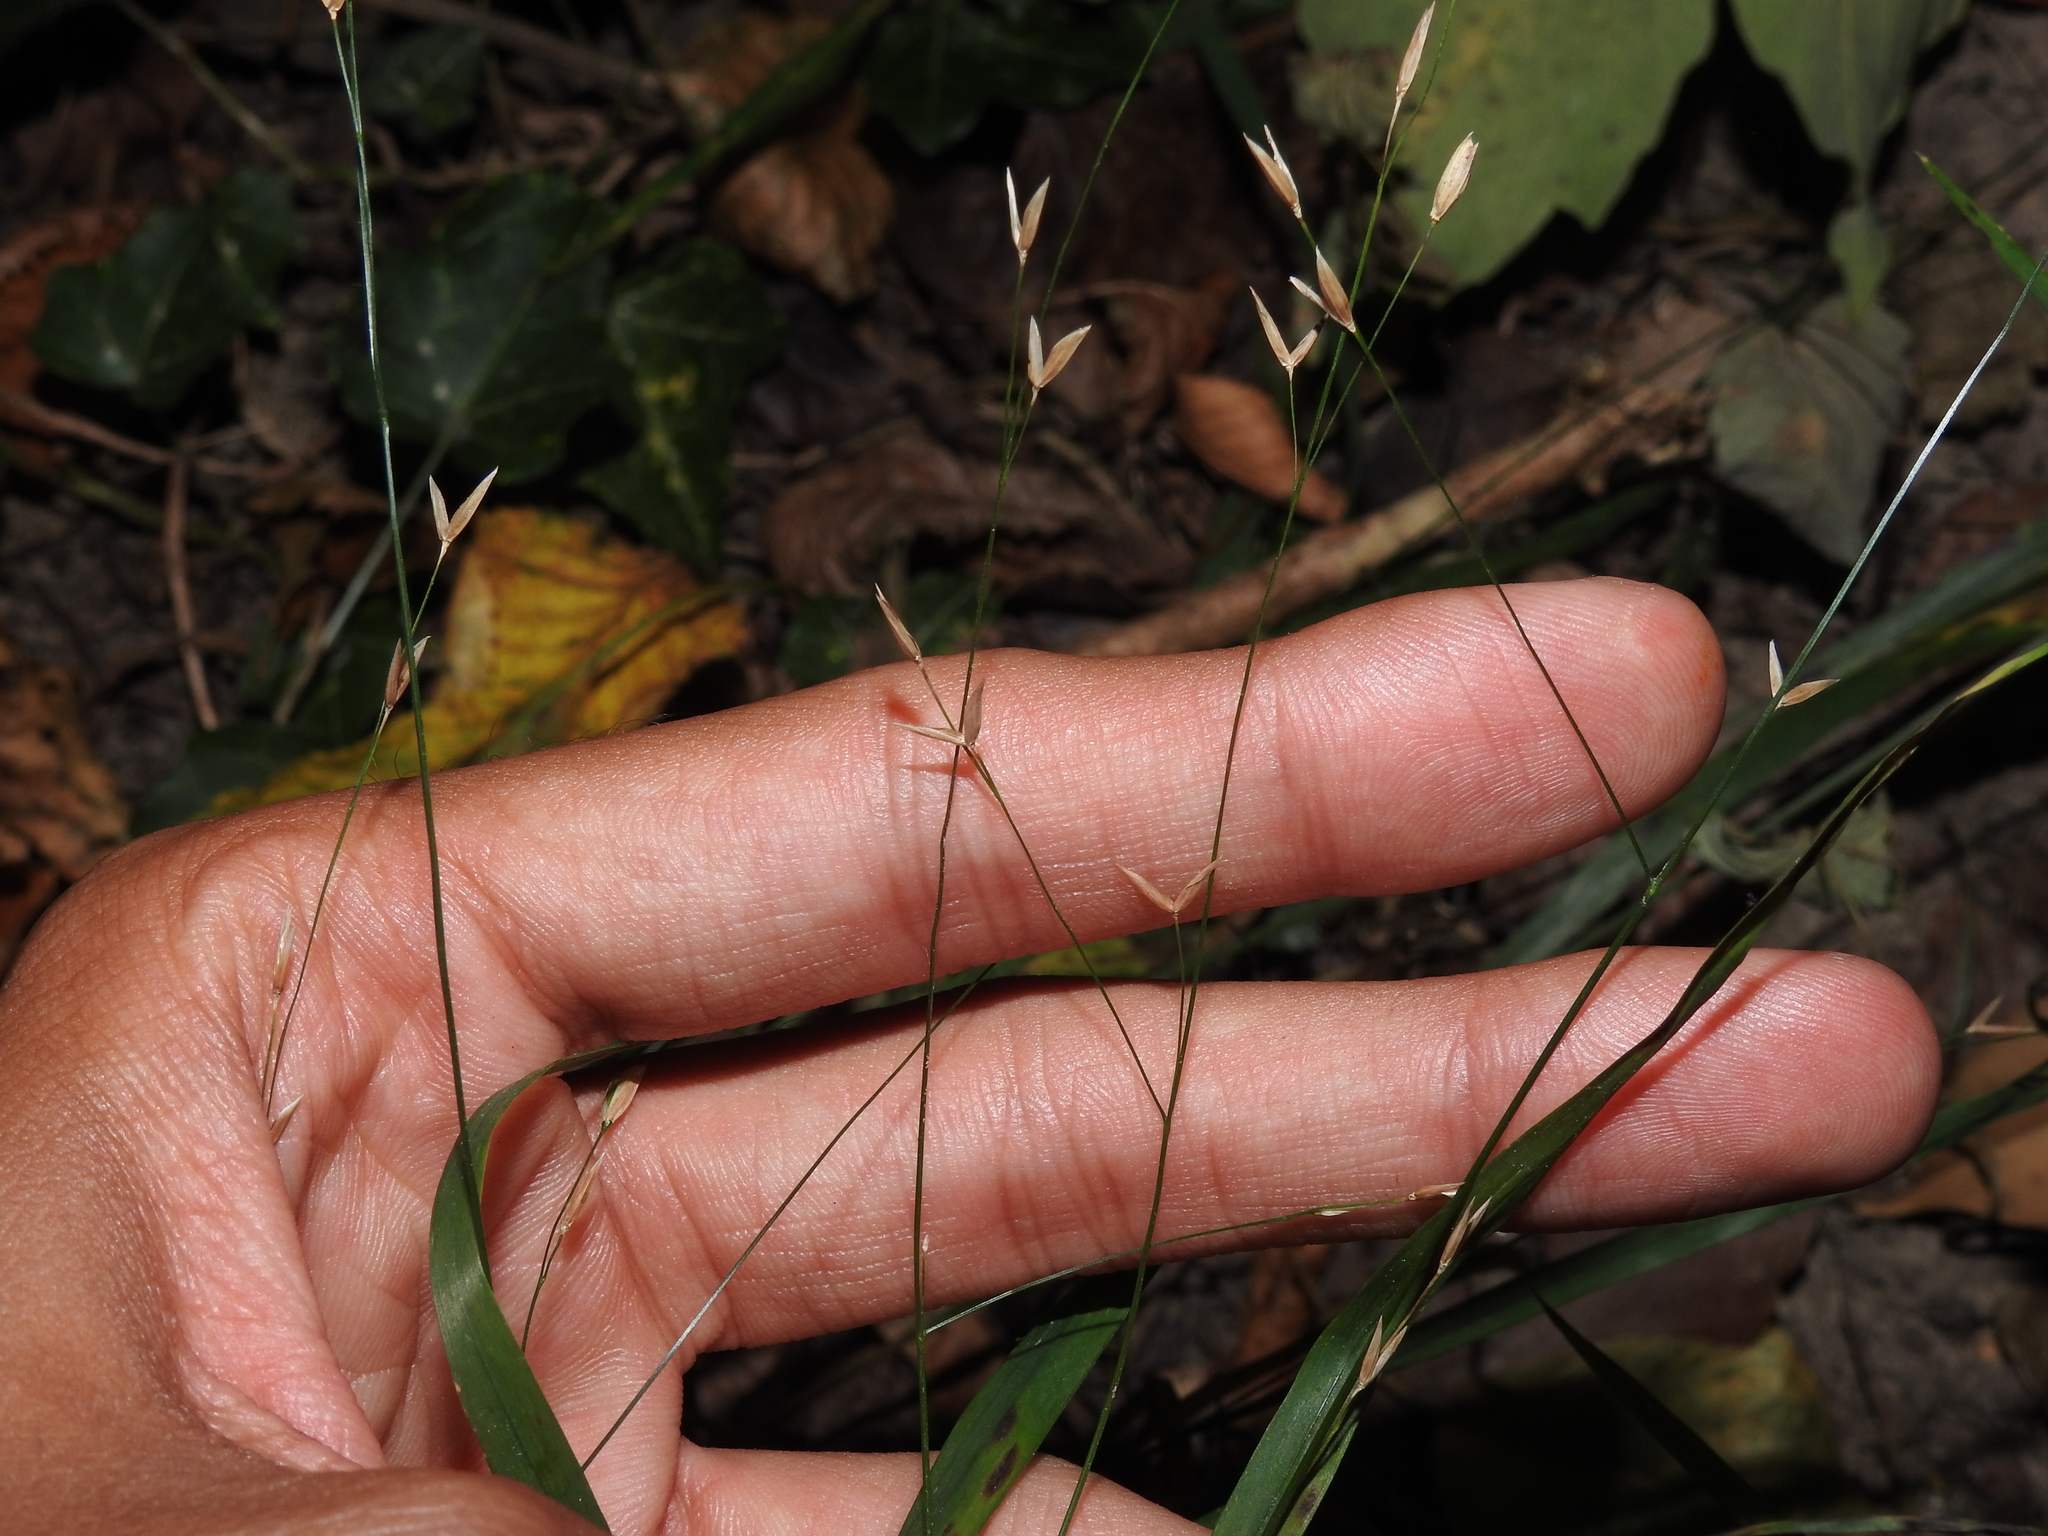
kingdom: Plantae
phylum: Tracheophyta
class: Liliopsida
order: Poales
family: Poaceae
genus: Melica
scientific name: Melica uniflora
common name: Wood melick
